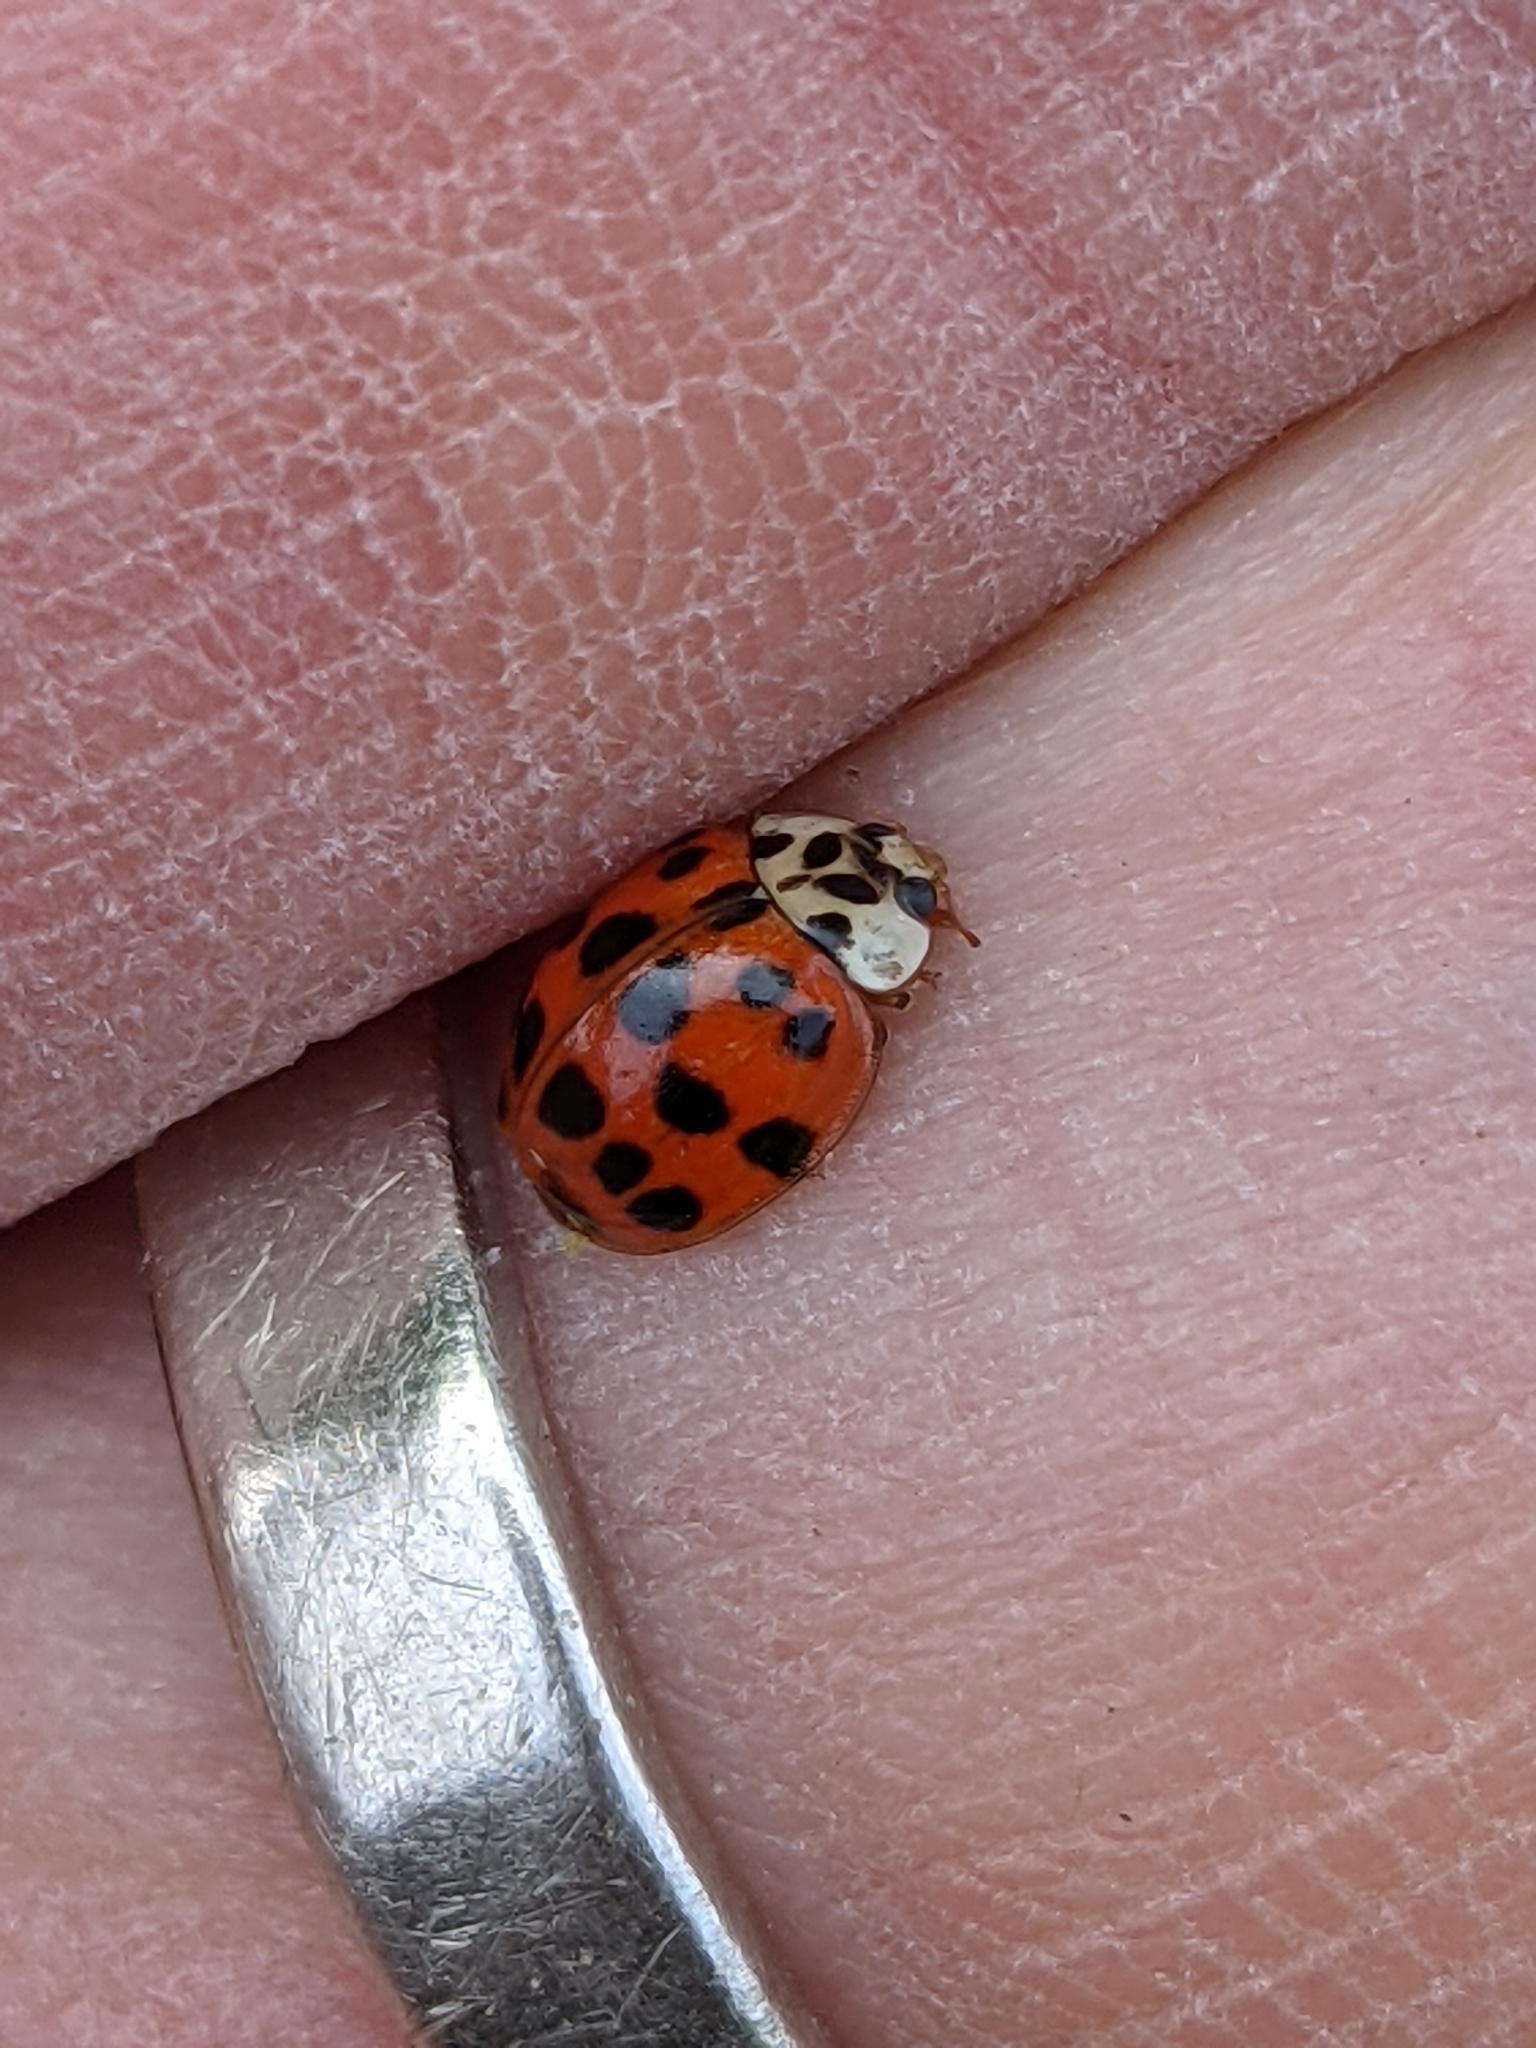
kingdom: Animalia
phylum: Arthropoda
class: Insecta
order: Coleoptera
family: Coccinellidae
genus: Harmonia
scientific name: Harmonia axyridis
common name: Harlequin ladybird
